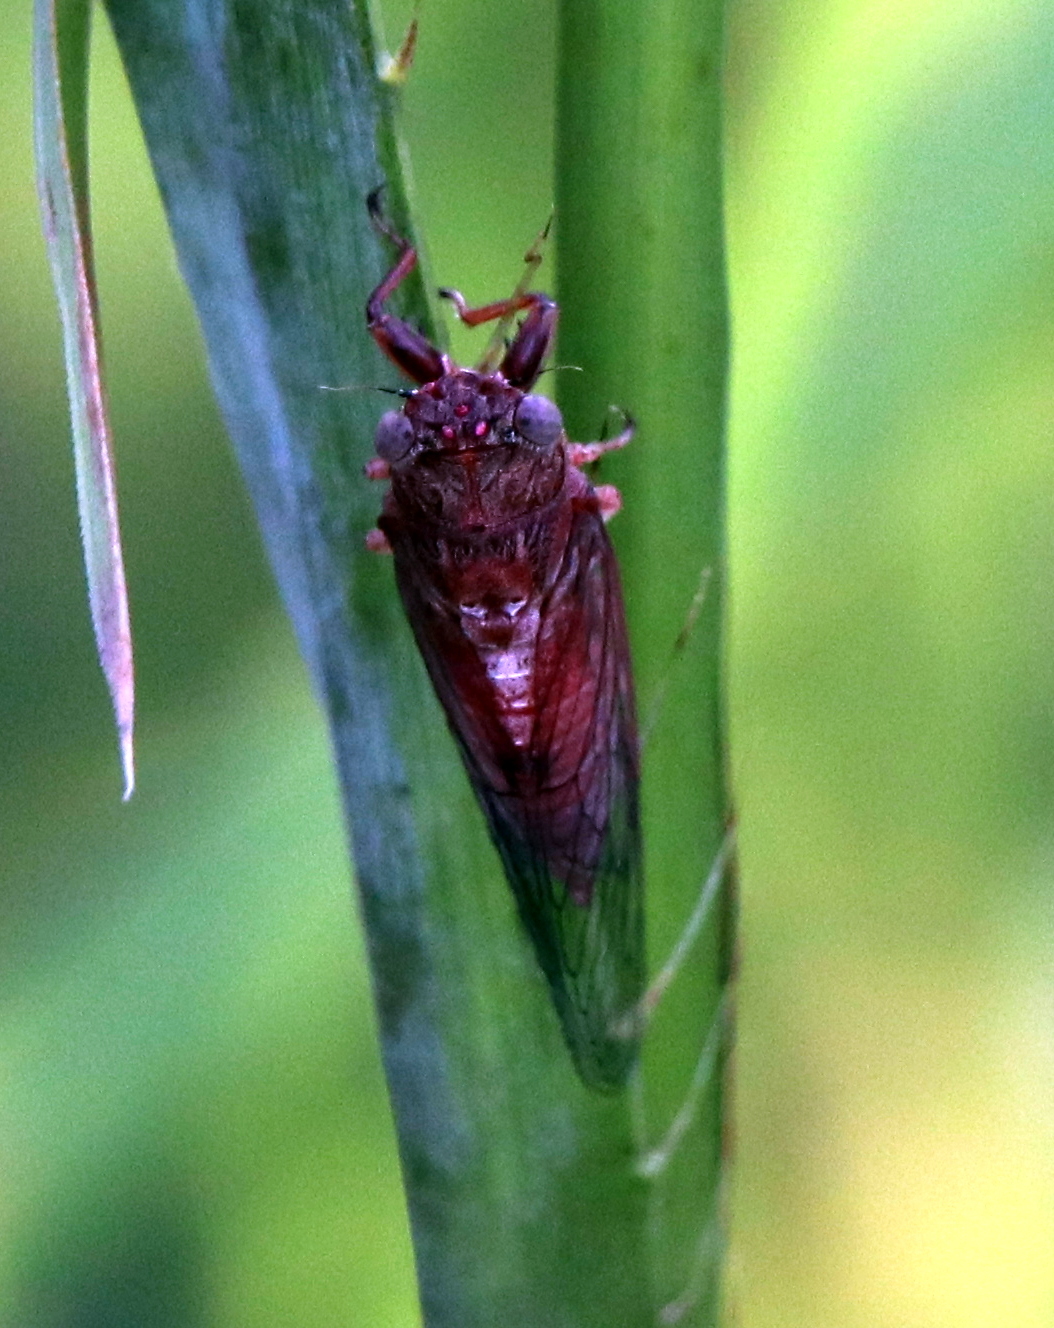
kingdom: Animalia
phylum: Arthropoda
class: Insecta
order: Hemiptera
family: Cicadidae
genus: Cicadettana
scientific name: Cicadettana calliope
